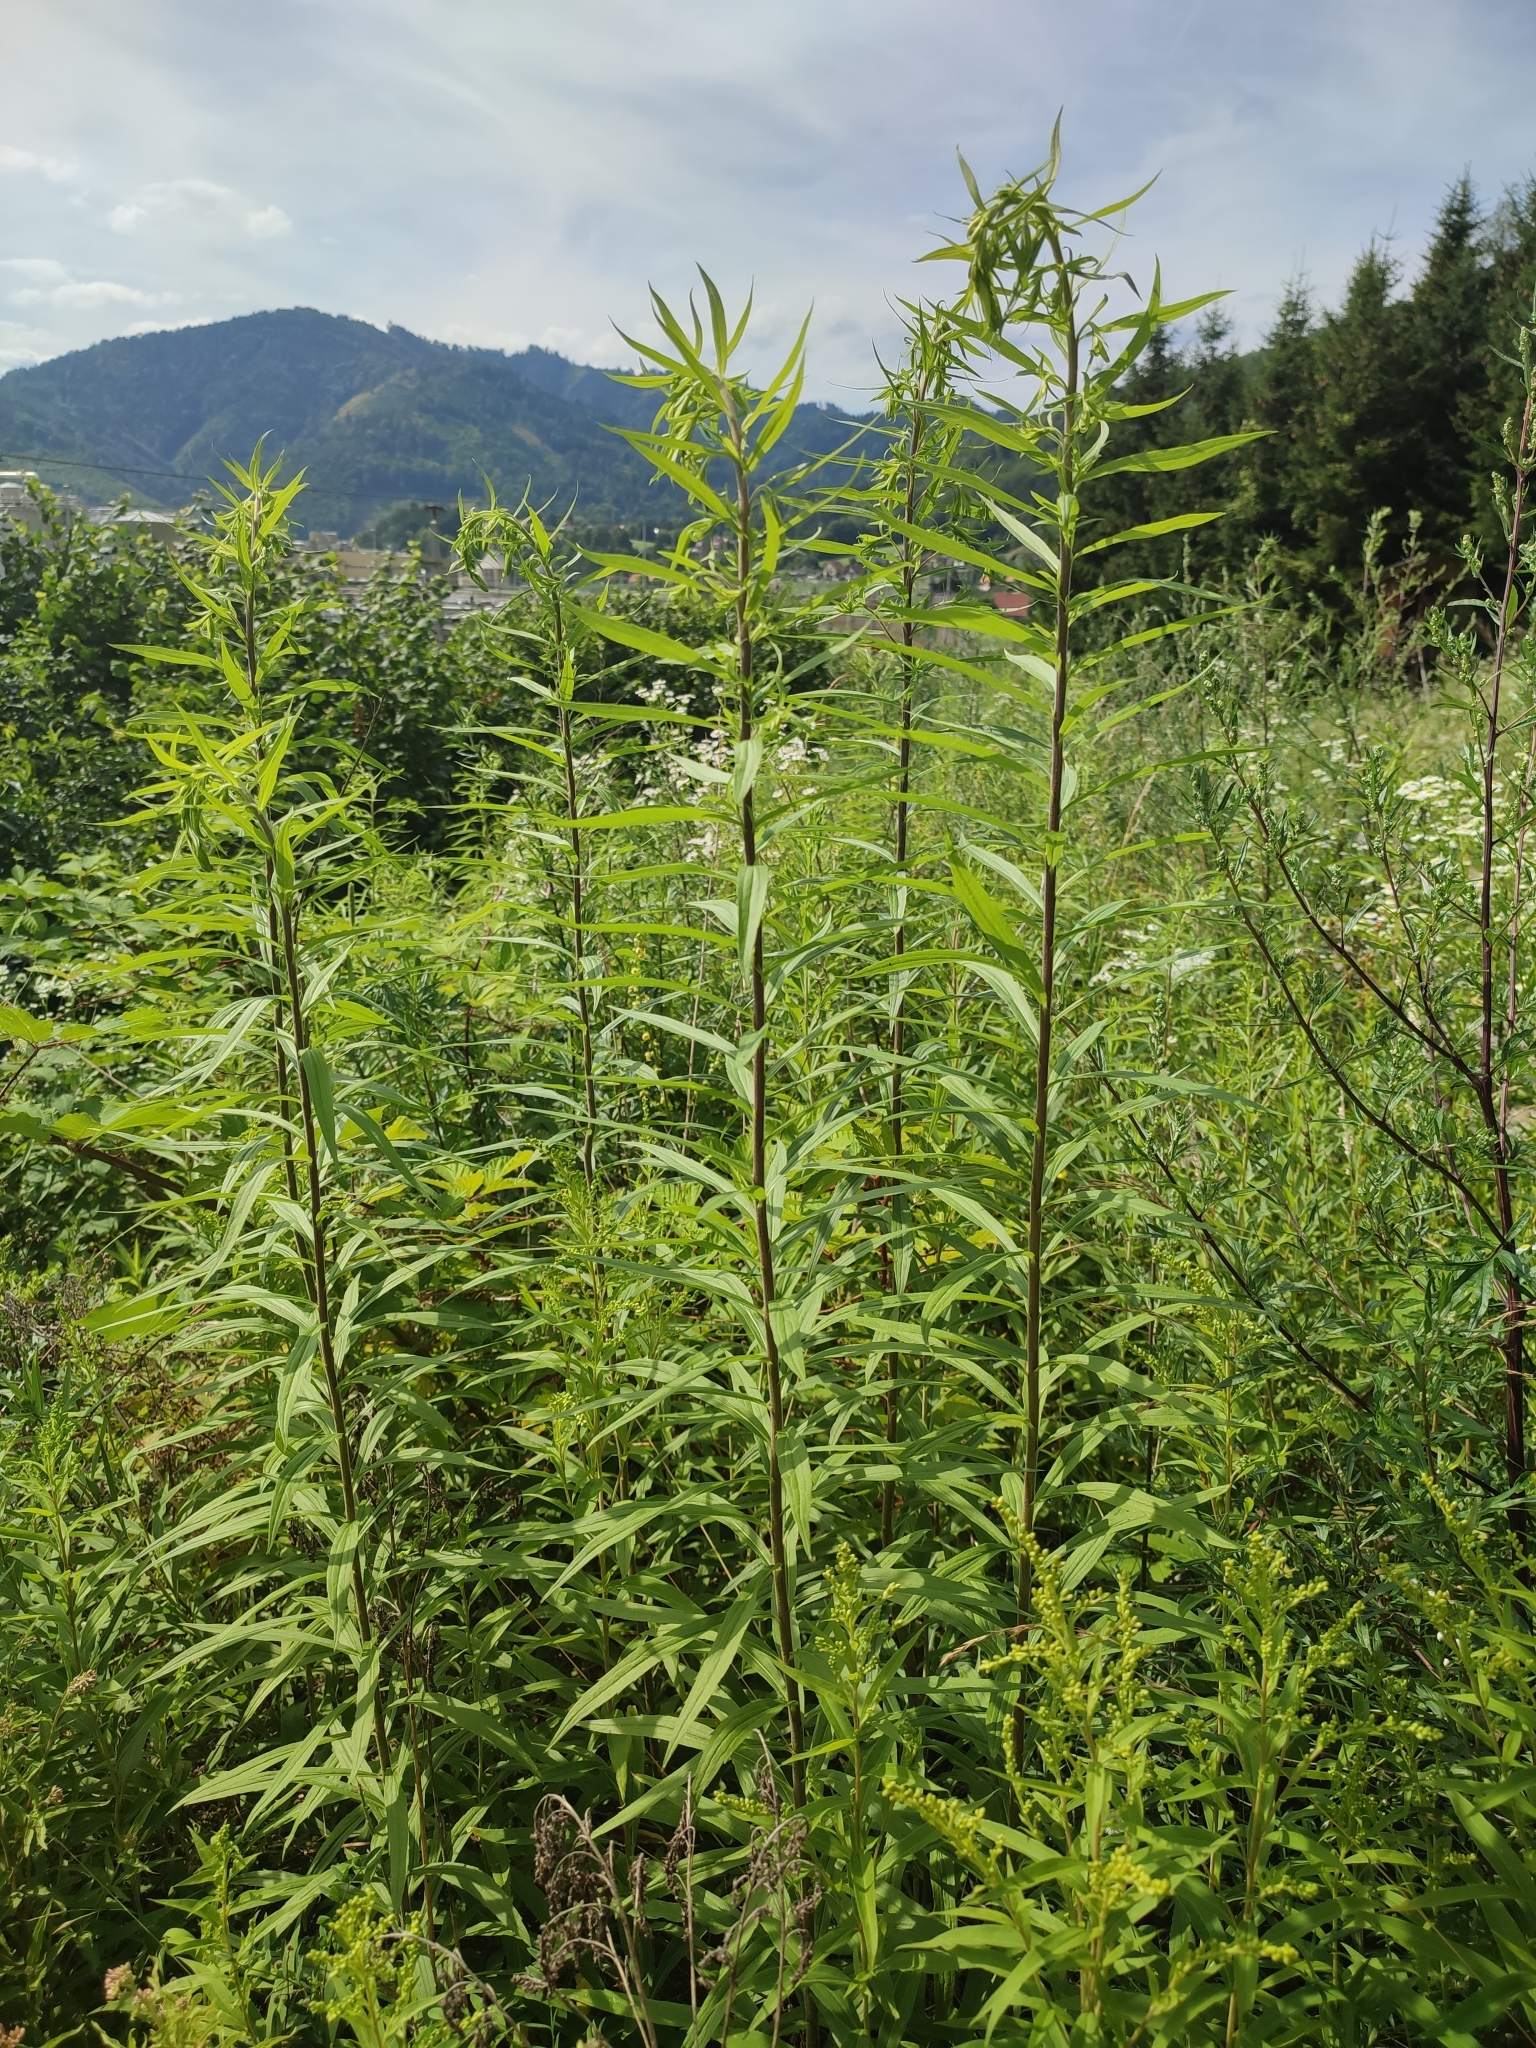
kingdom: Plantae
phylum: Tracheophyta
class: Magnoliopsida
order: Asterales
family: Asteraceae
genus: Solidago
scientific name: Solidago canadensis
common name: Canada goldenrod
